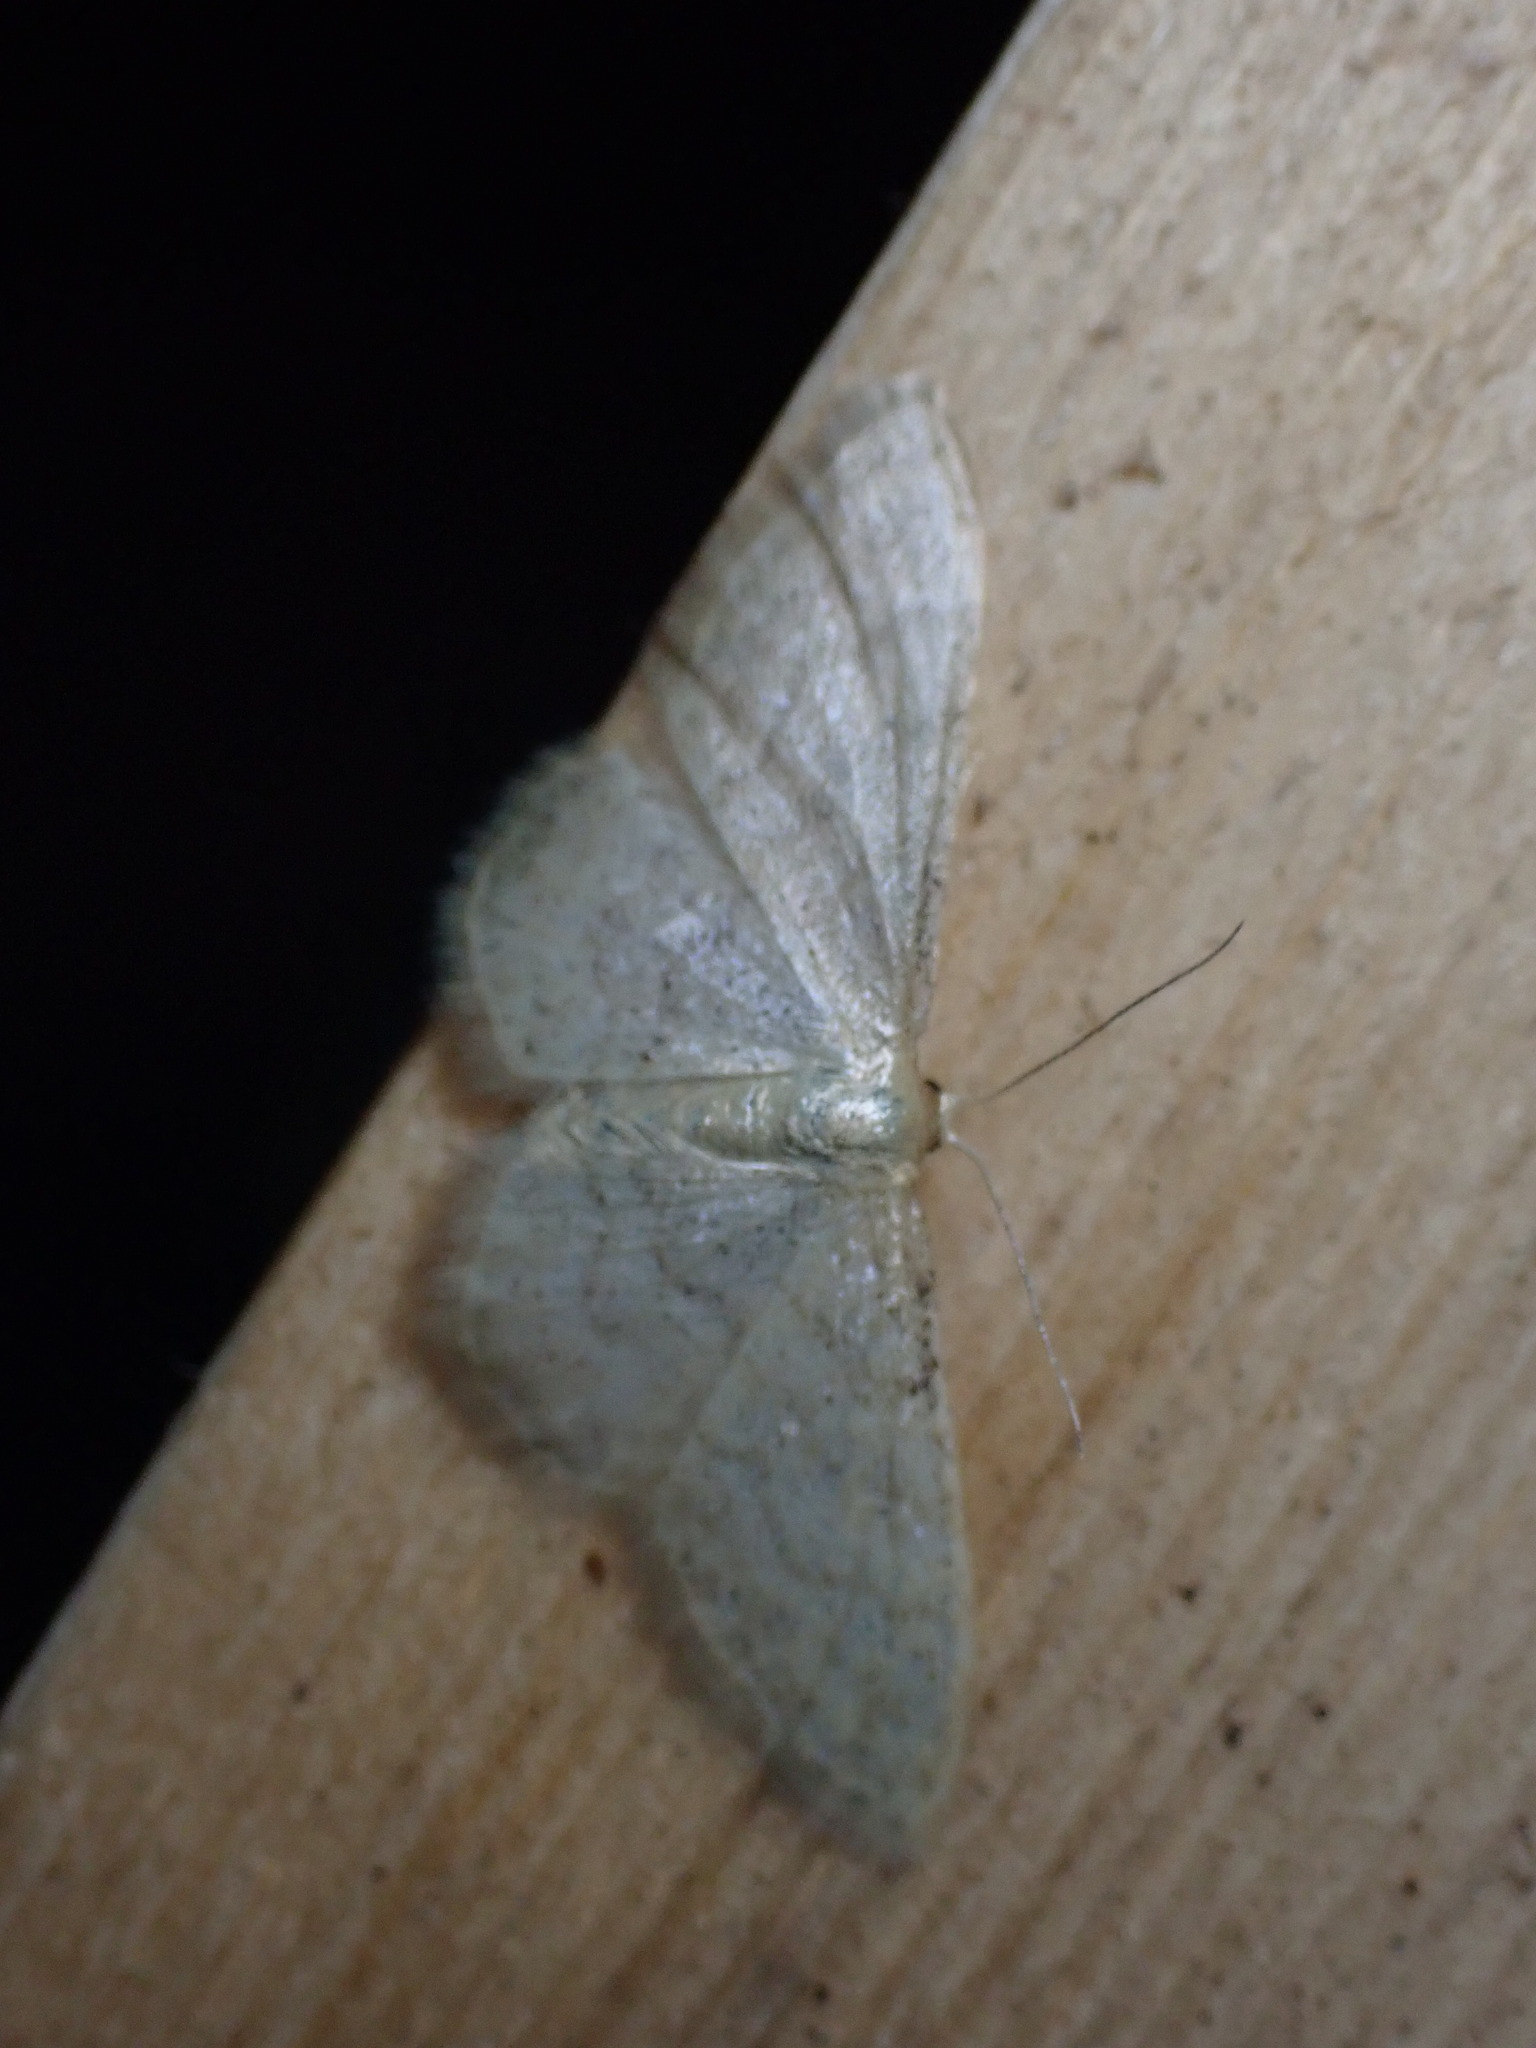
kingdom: Animalia
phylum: Arthropoda
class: Insecta
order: Lepidoptera
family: Geometridae
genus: Idaea
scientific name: Idaea dilutaria
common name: Silky wave
